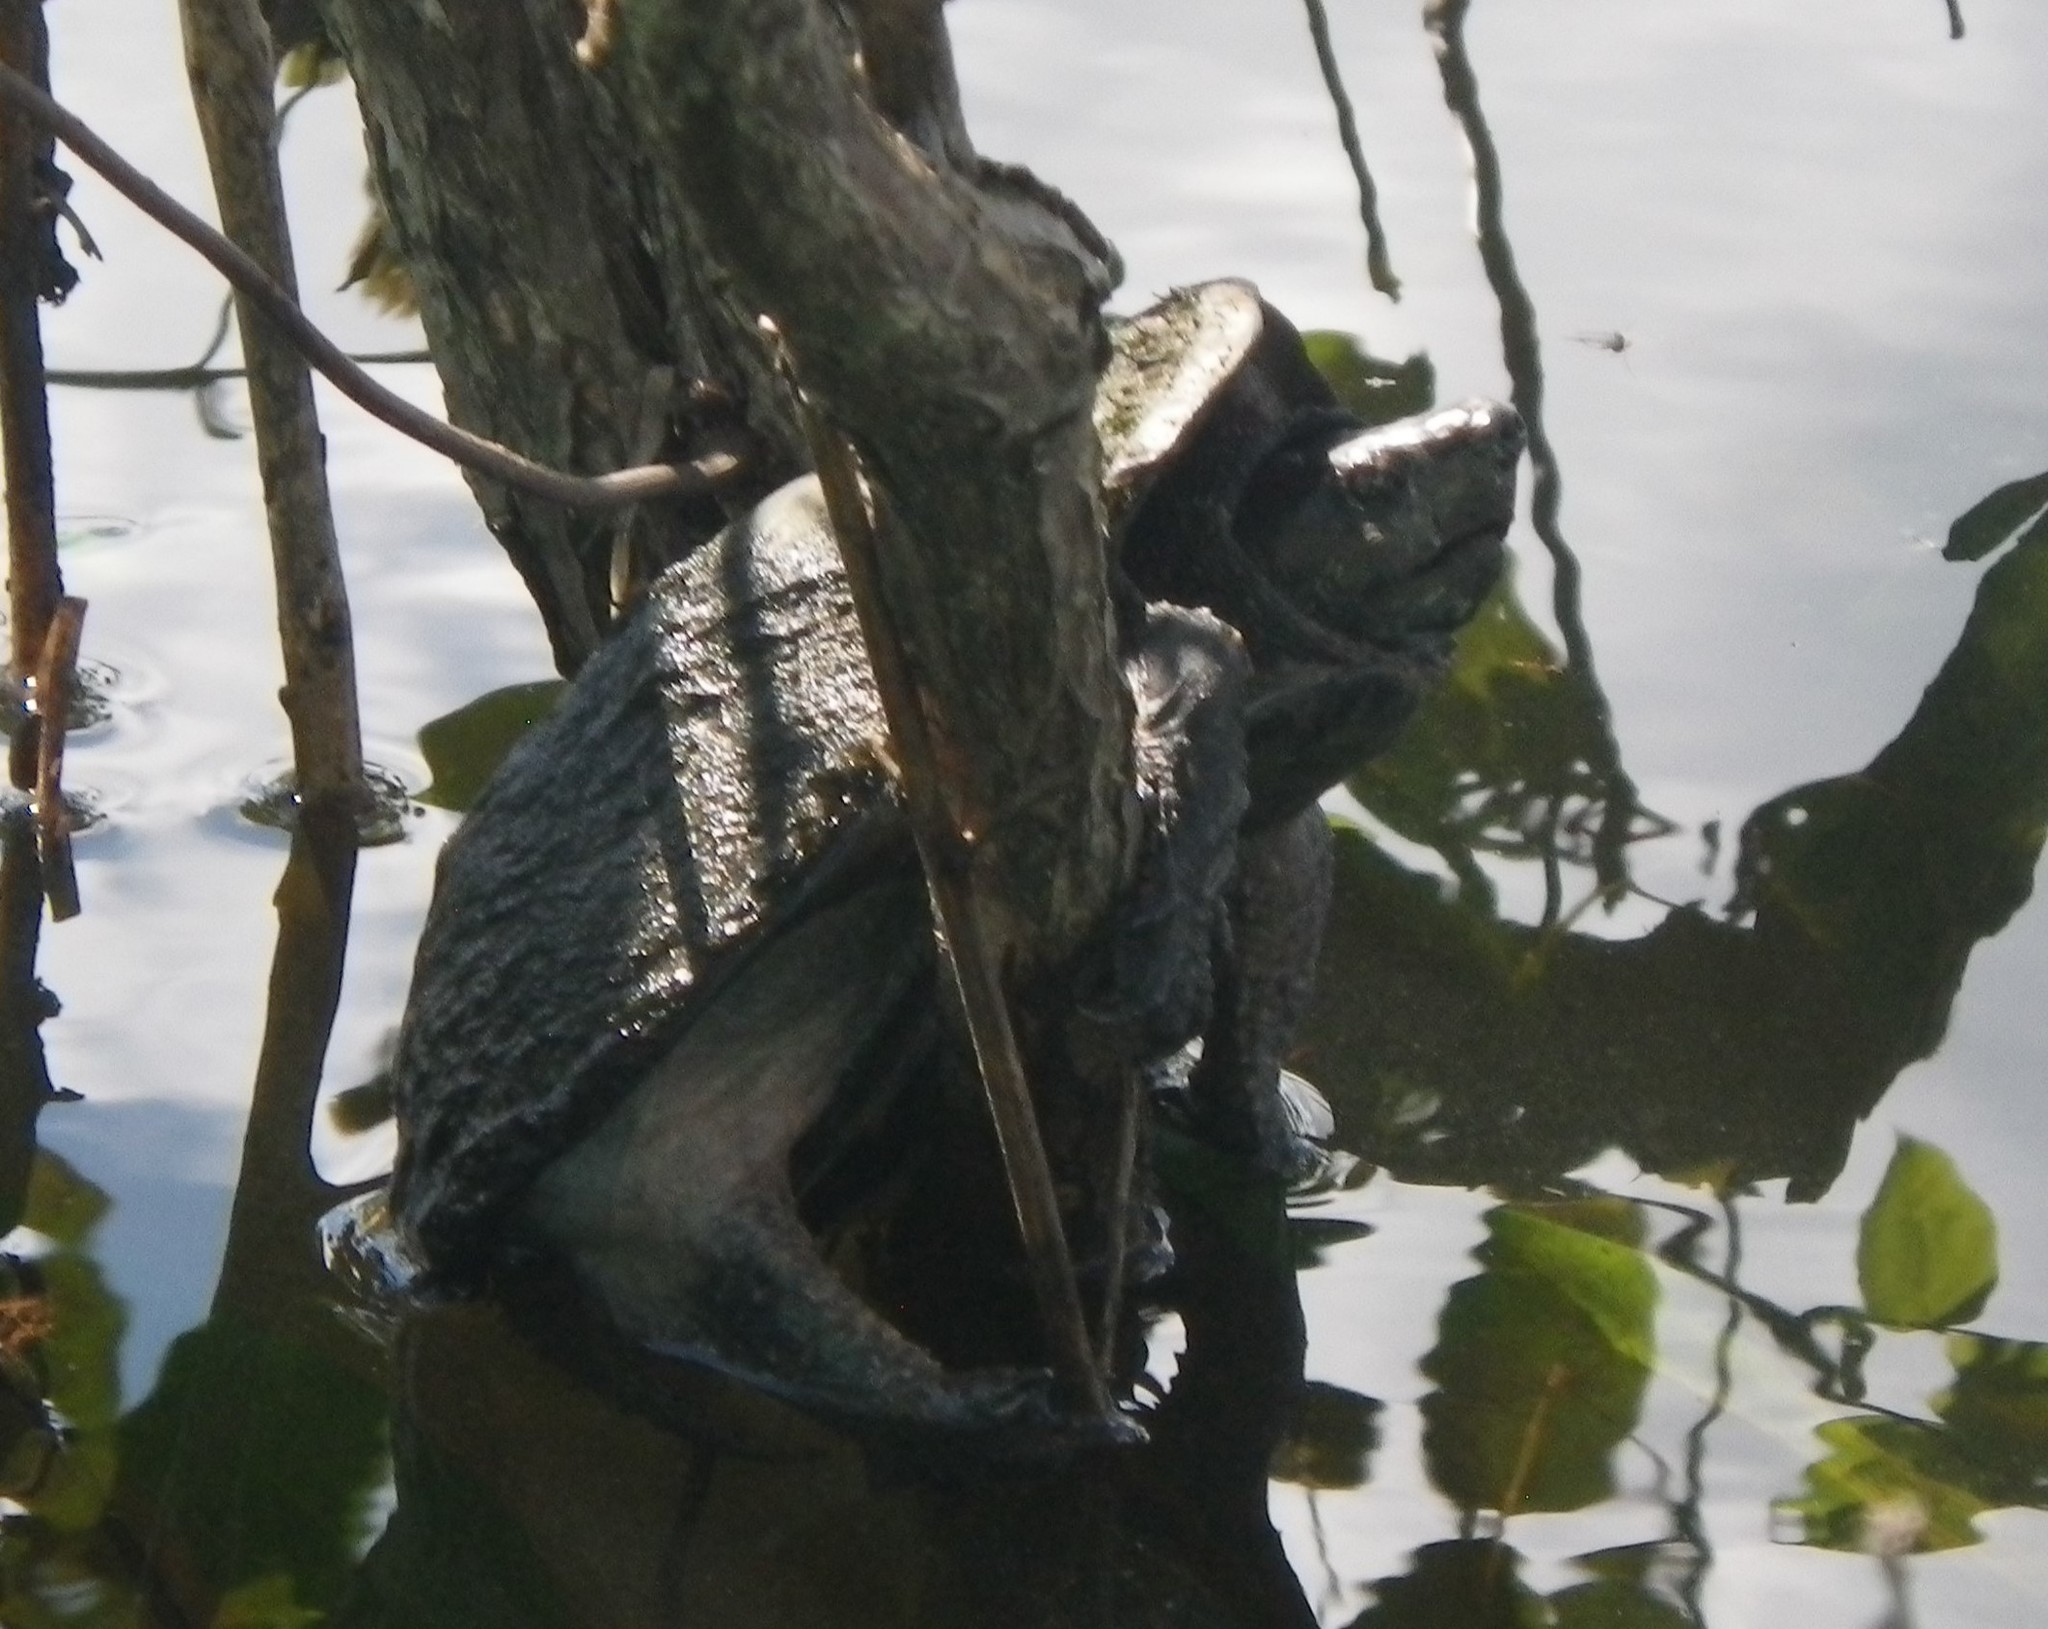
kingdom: Animalia
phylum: Chordata
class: Testudines
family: Kinosternidae
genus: Sternotherus
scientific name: Sternotherus odoratus
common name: Common musk turtle
